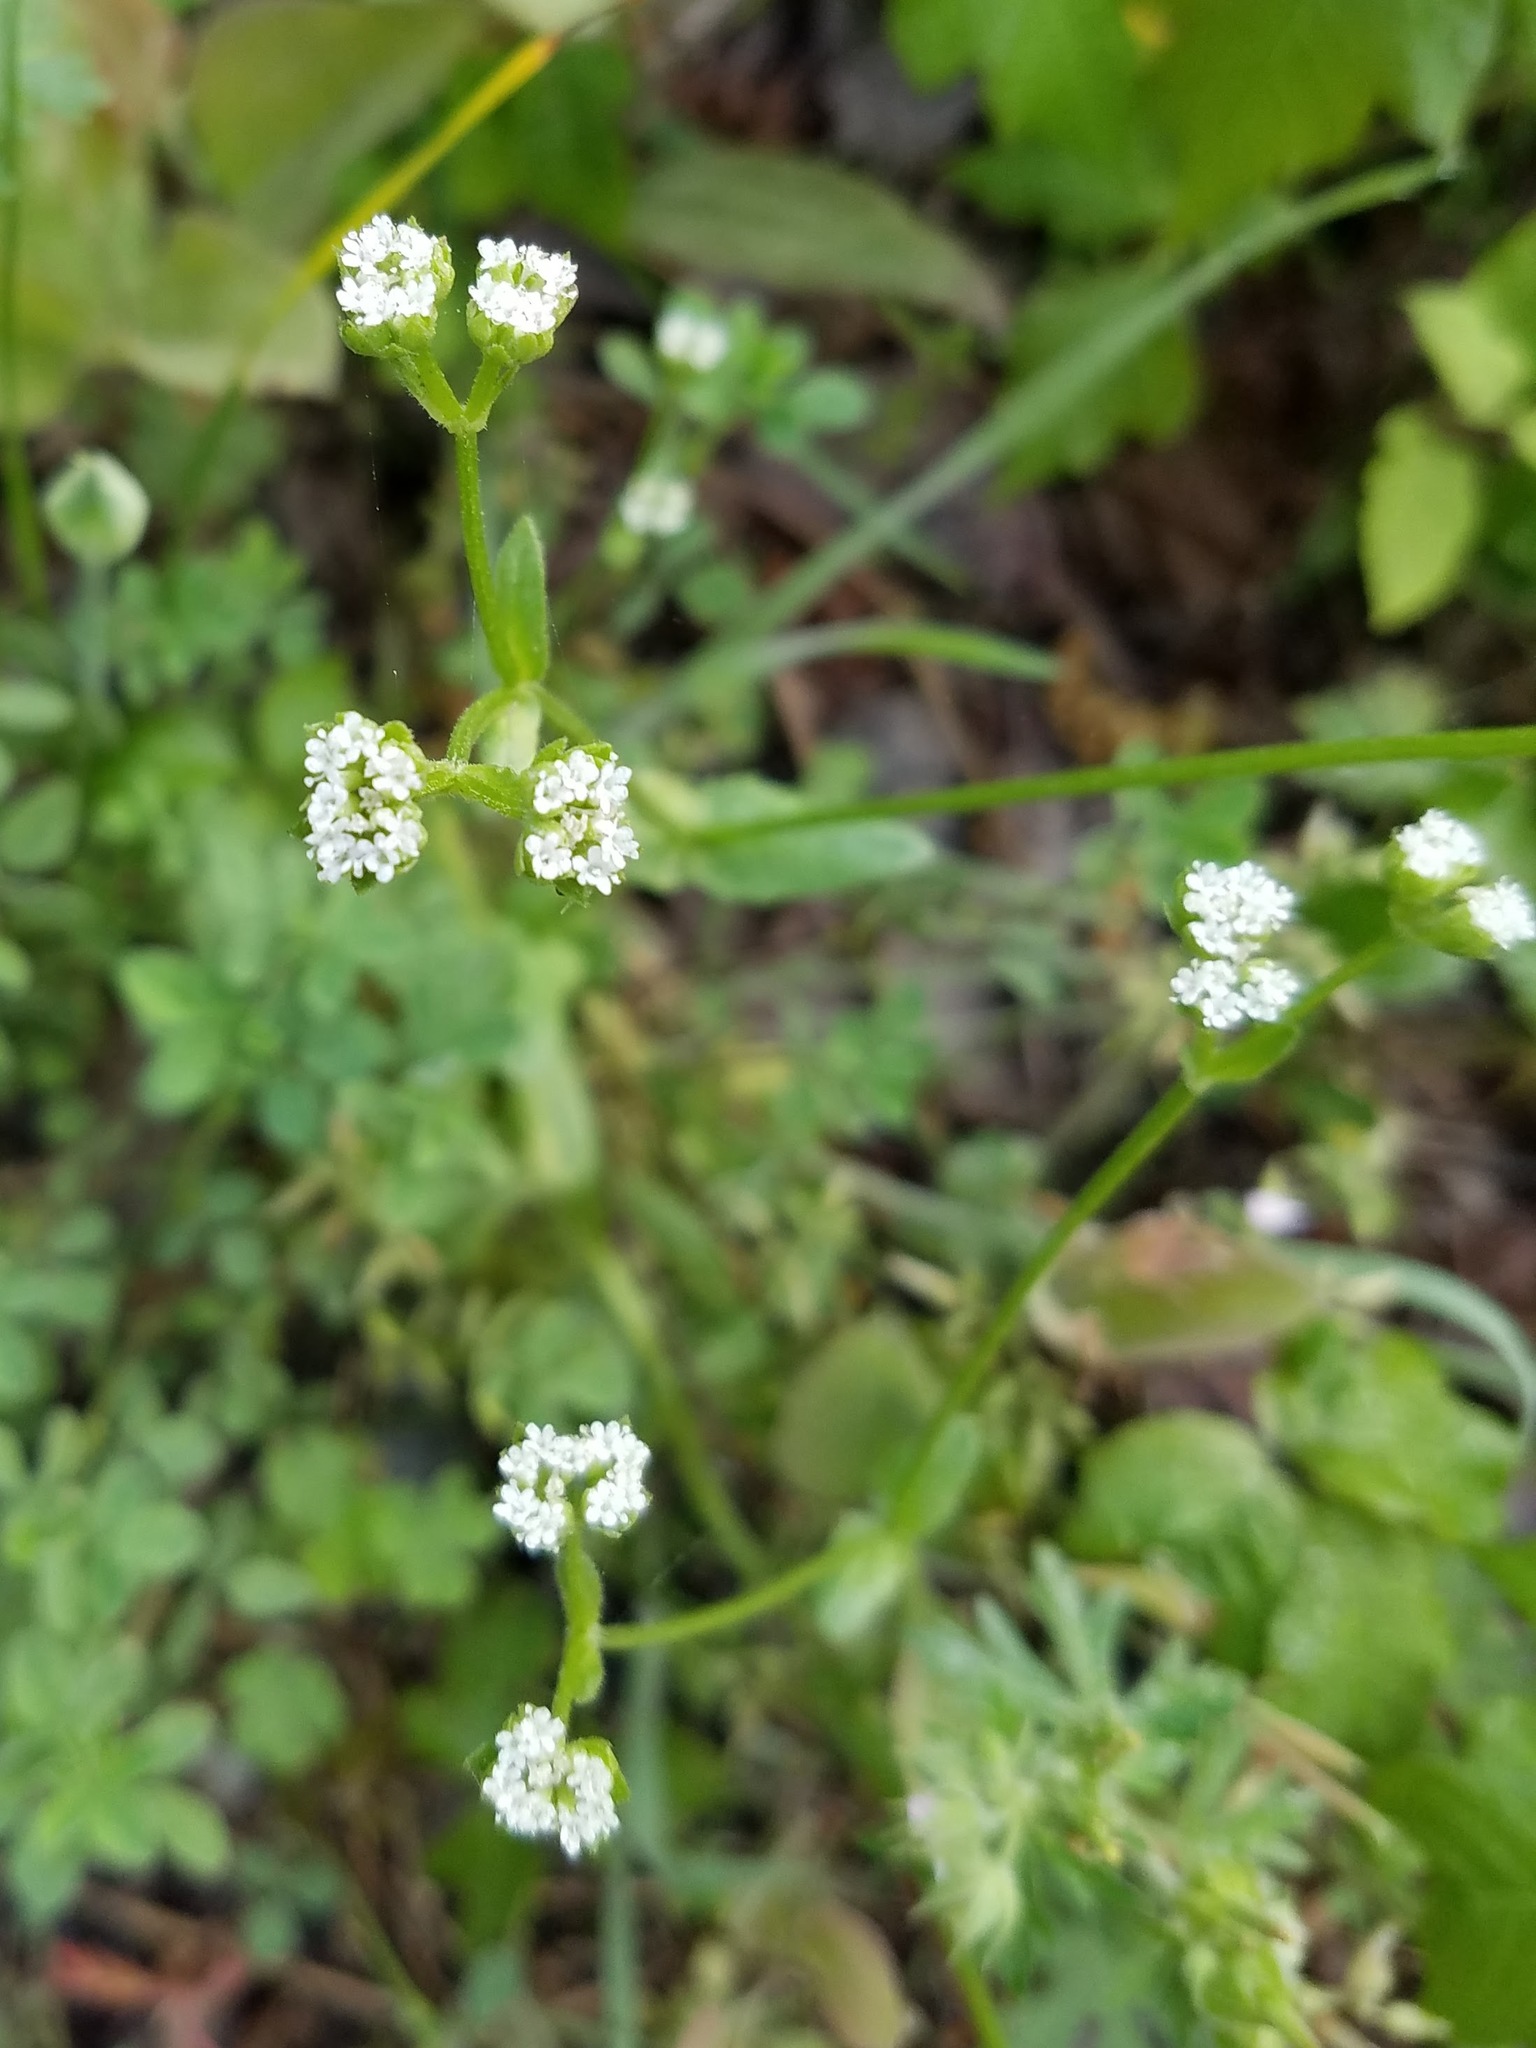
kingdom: Plantae
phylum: Tracheophyta
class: Magnoliopsida
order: Dipsacales
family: Caprifoliaceae
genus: Valerianella
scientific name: Valerianella radiata
